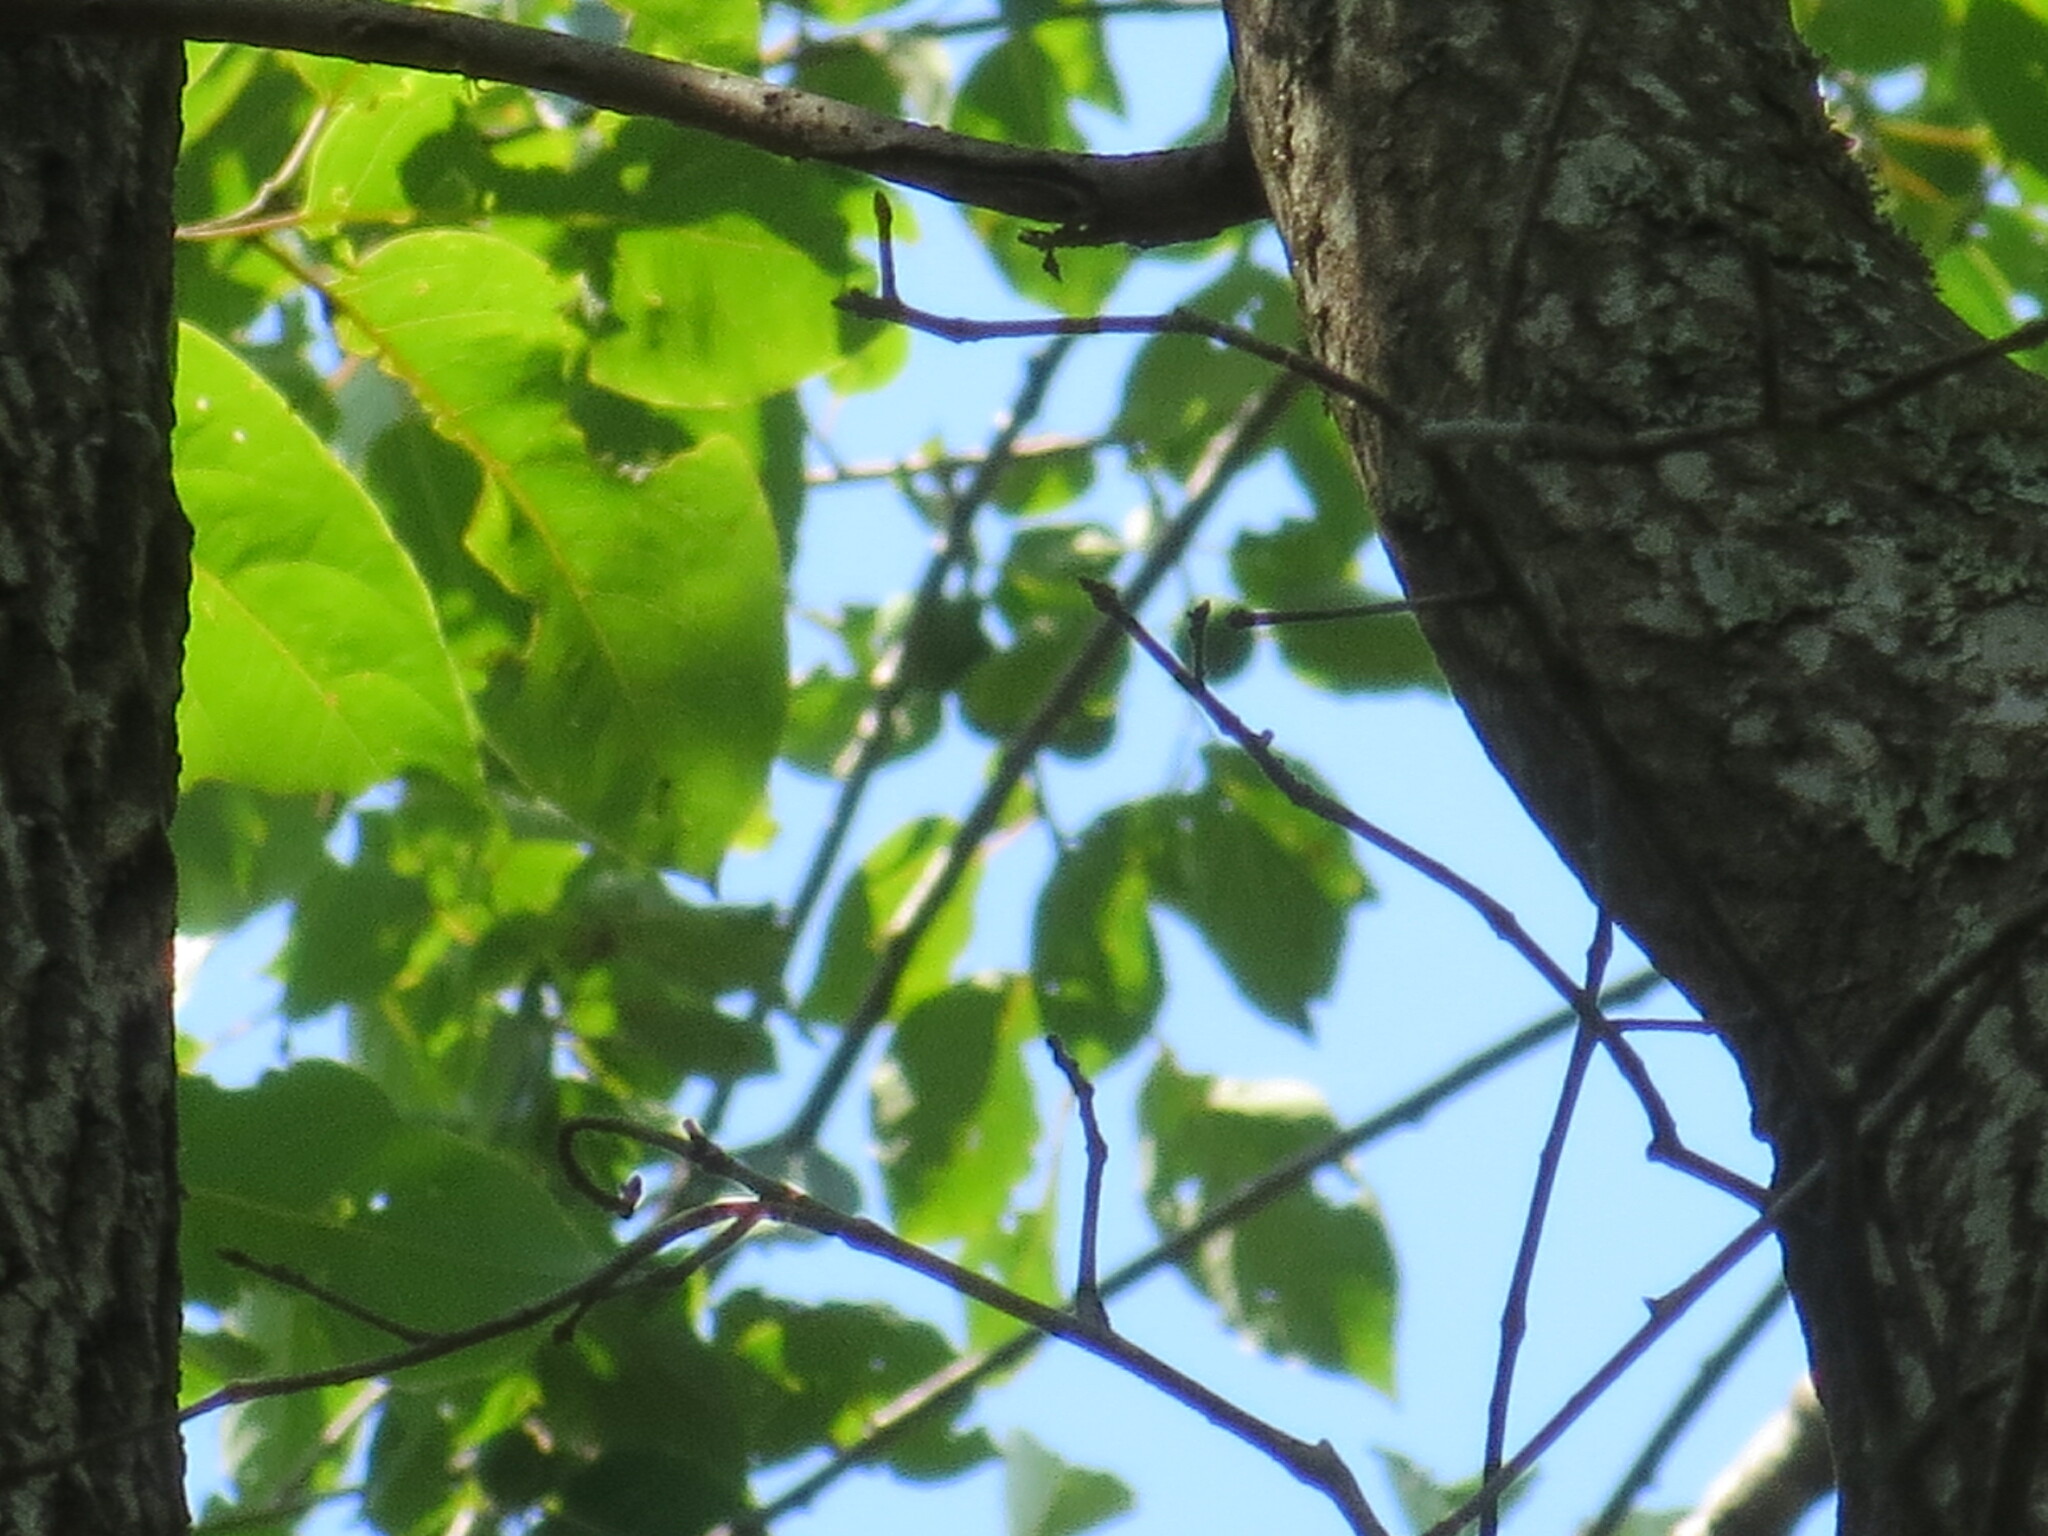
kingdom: Plantae
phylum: Tracheophyta
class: Magnoliopsida
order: Ericales
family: Ebenaceae
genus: Diospyros
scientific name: Diospyros virginiana
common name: Persimmon
